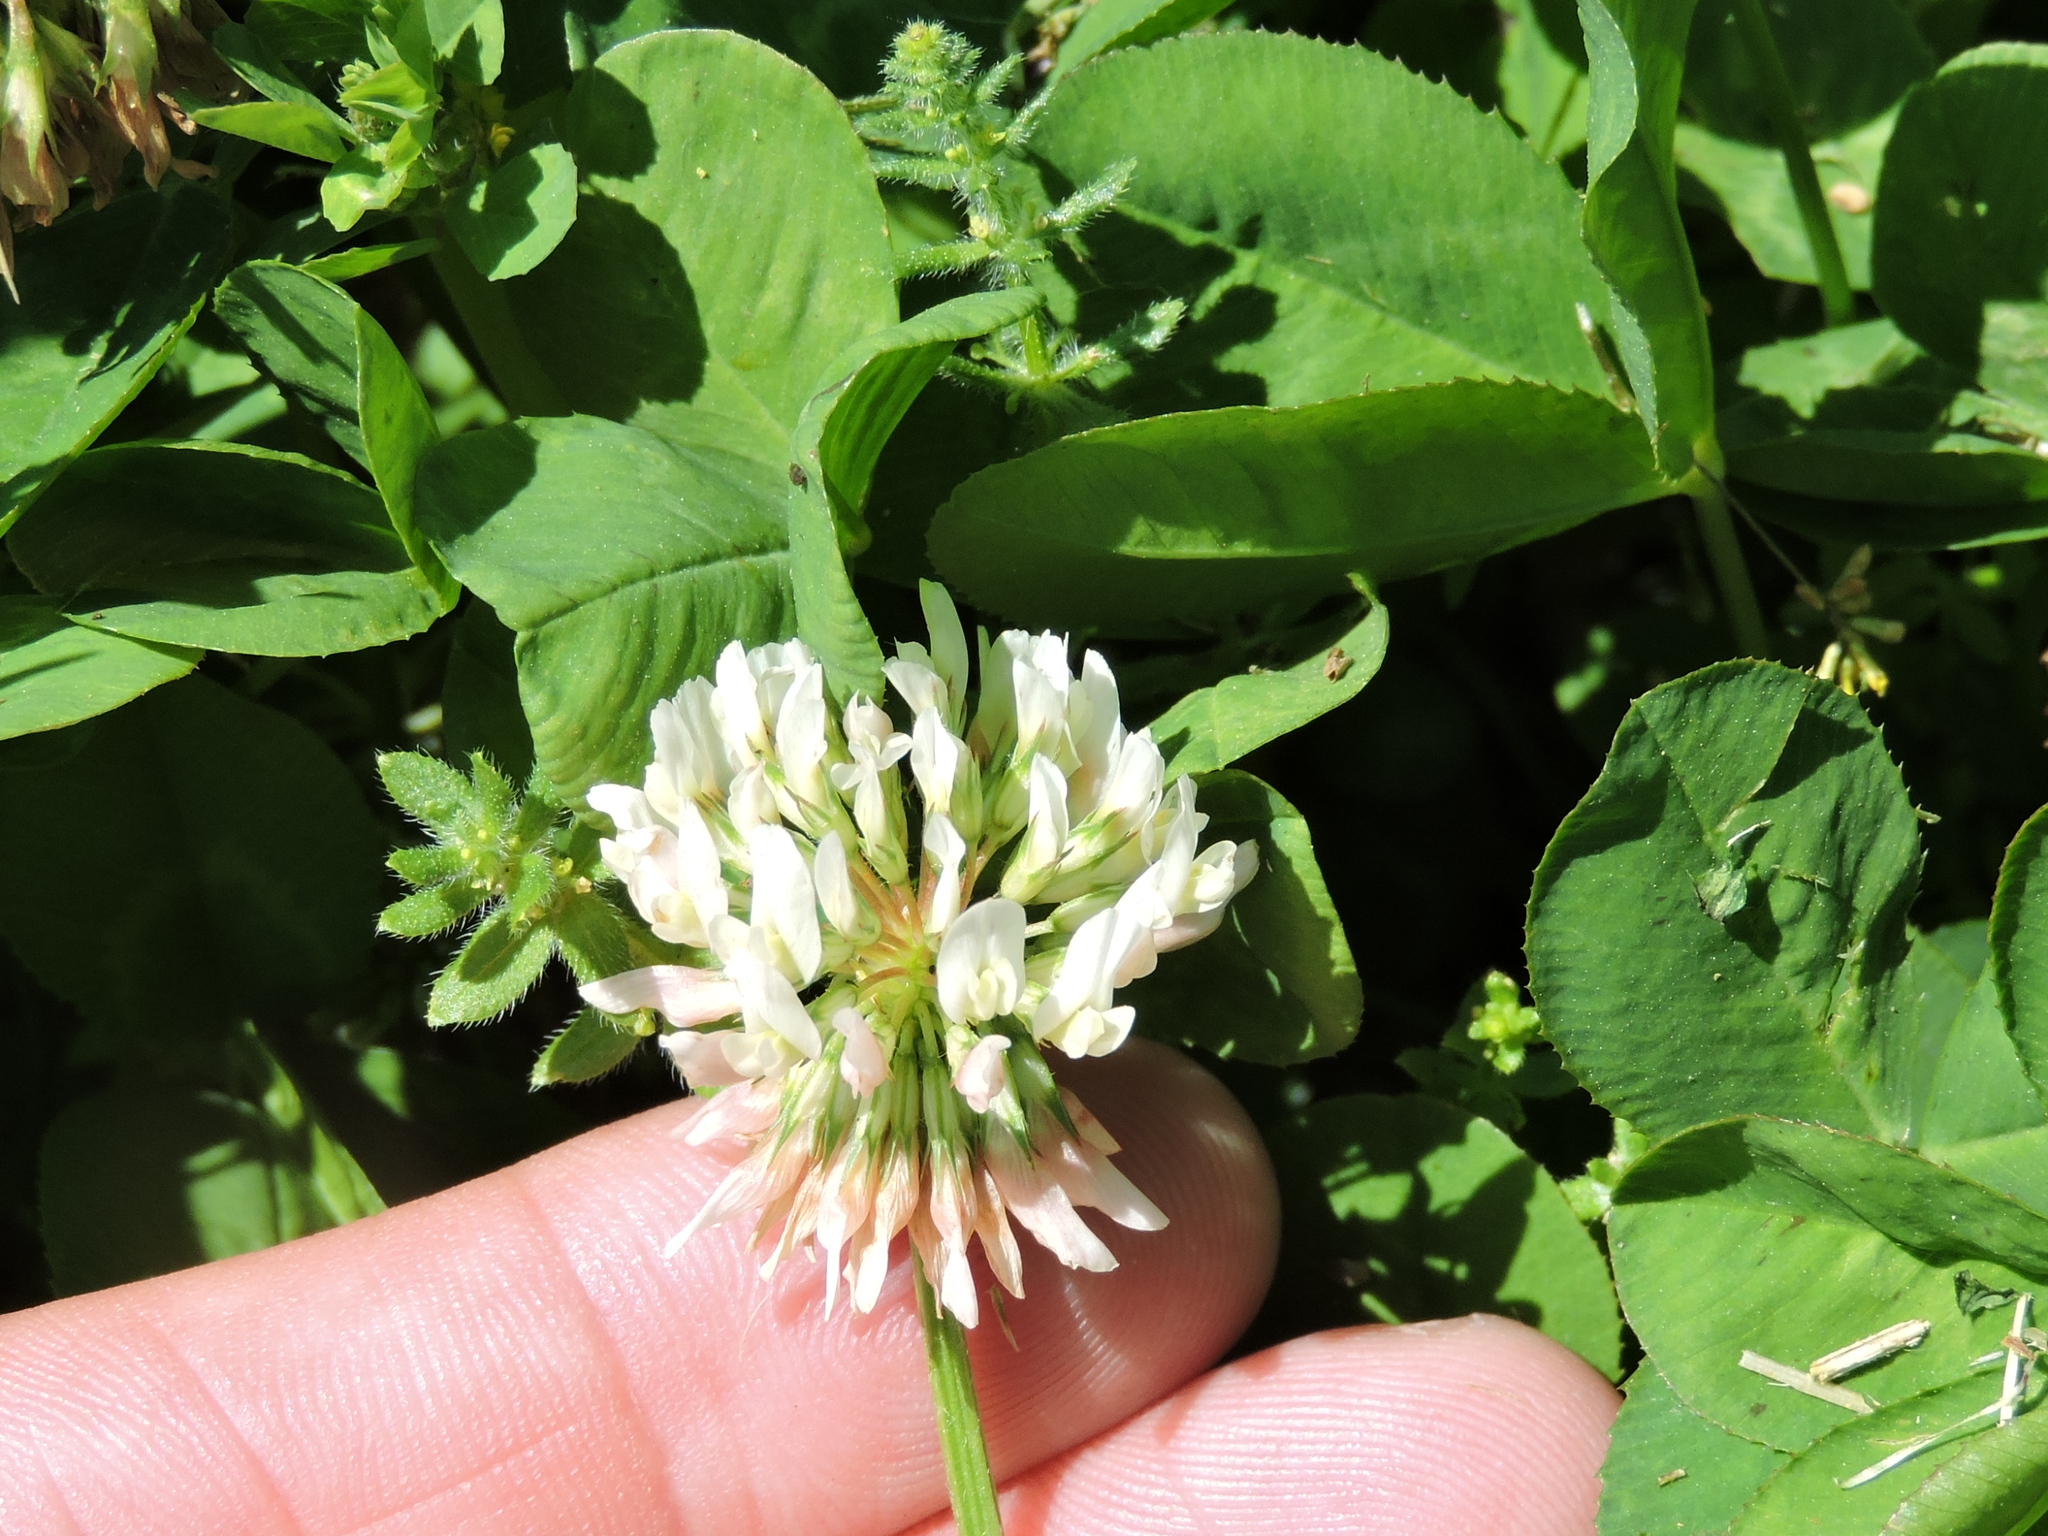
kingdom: Plantae
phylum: Tracheophyta
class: Magnoliopsida
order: Fabales
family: Fabaceae
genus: Trifolium
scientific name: Trifolium repens
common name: White clover
